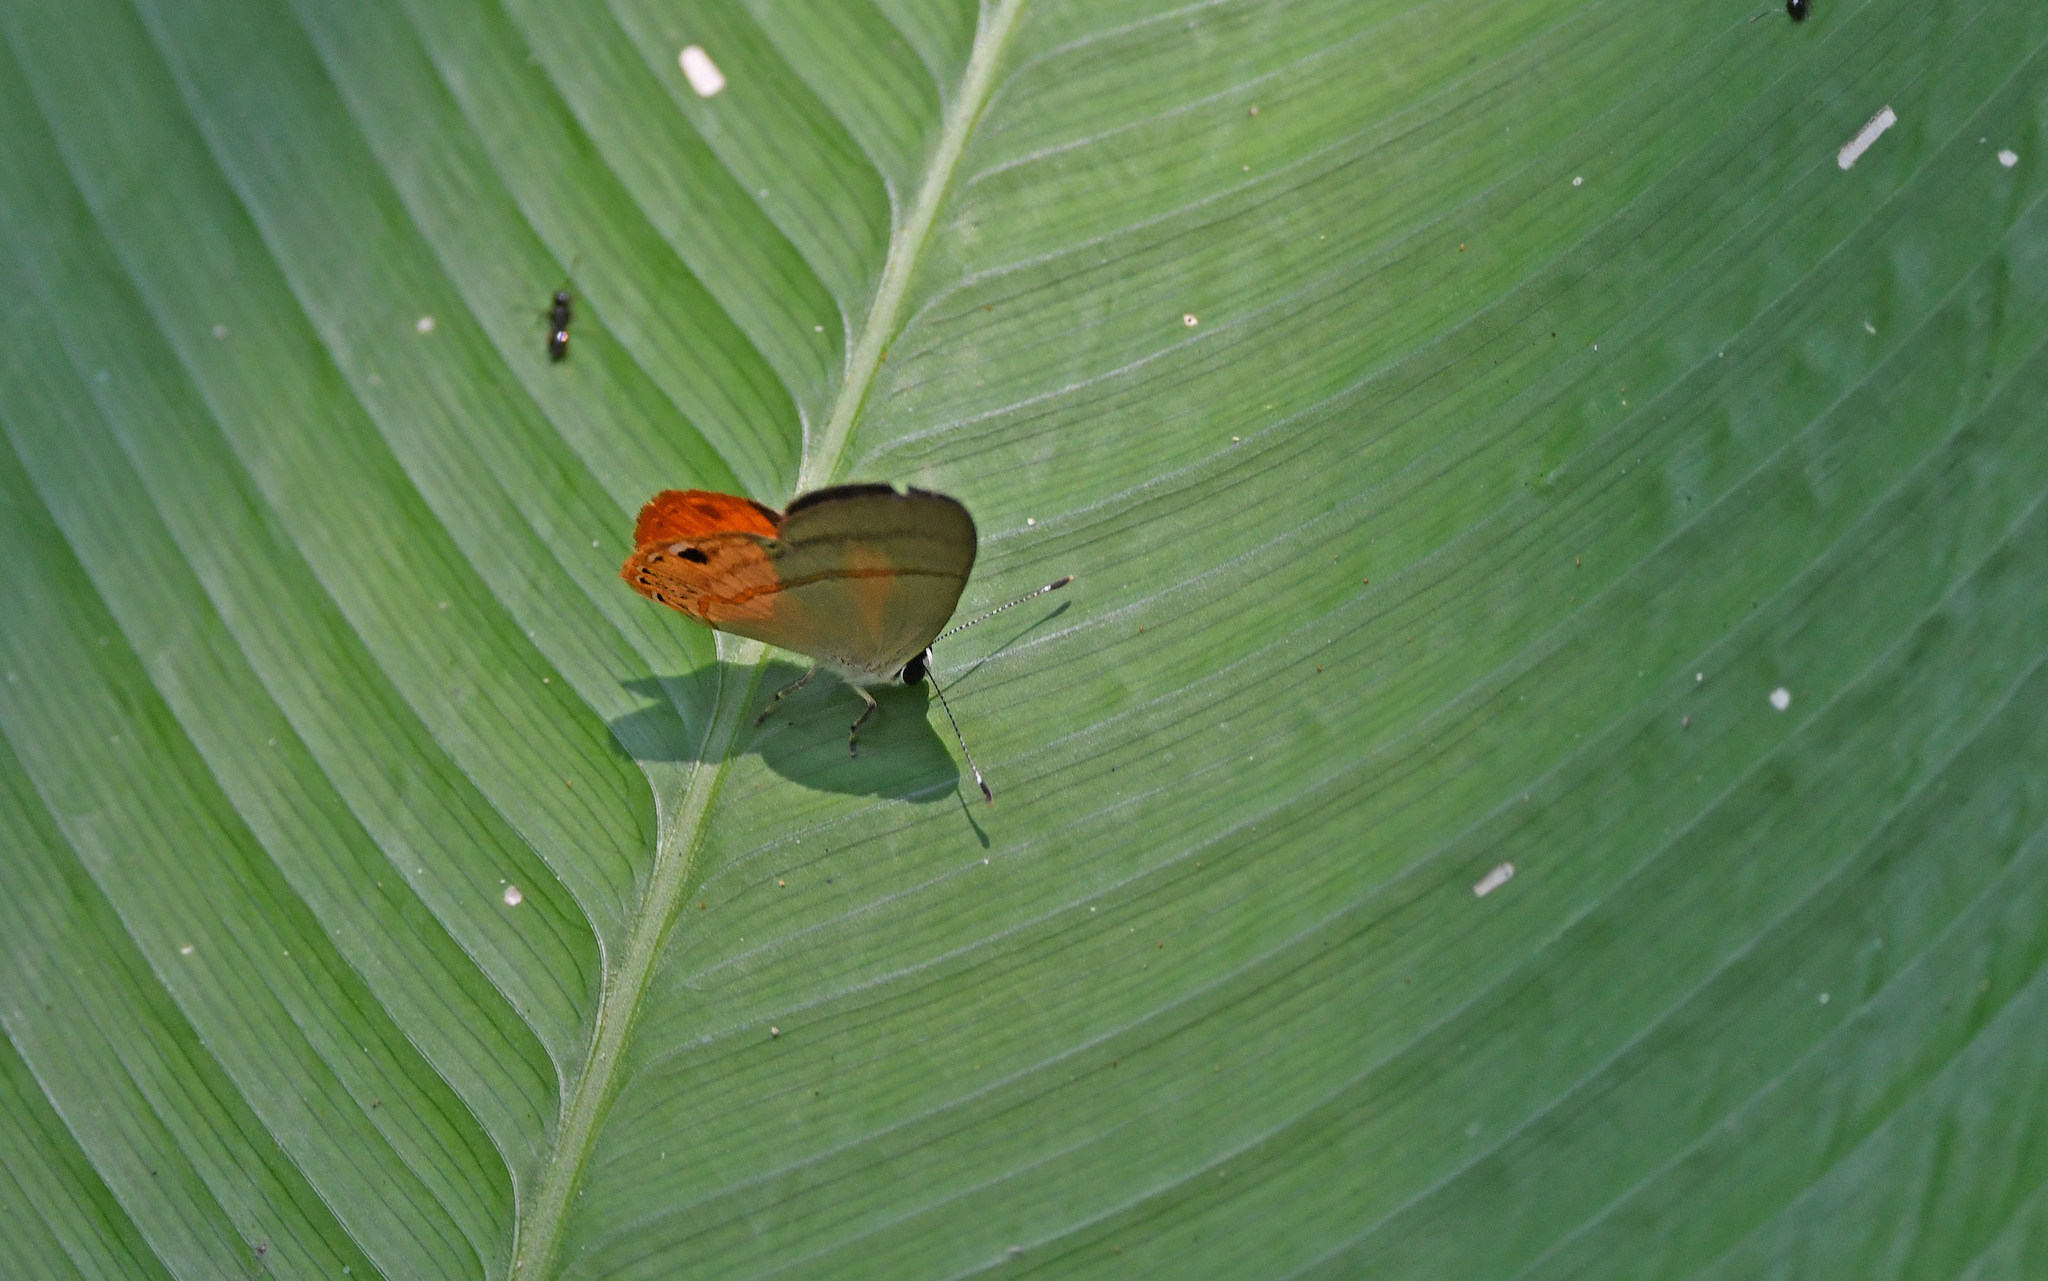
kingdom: Animalia
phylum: Arthropoda
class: Insecta
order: Lepidoptera
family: Lycaenidae
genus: Euselasia
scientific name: Euselasia crinon
